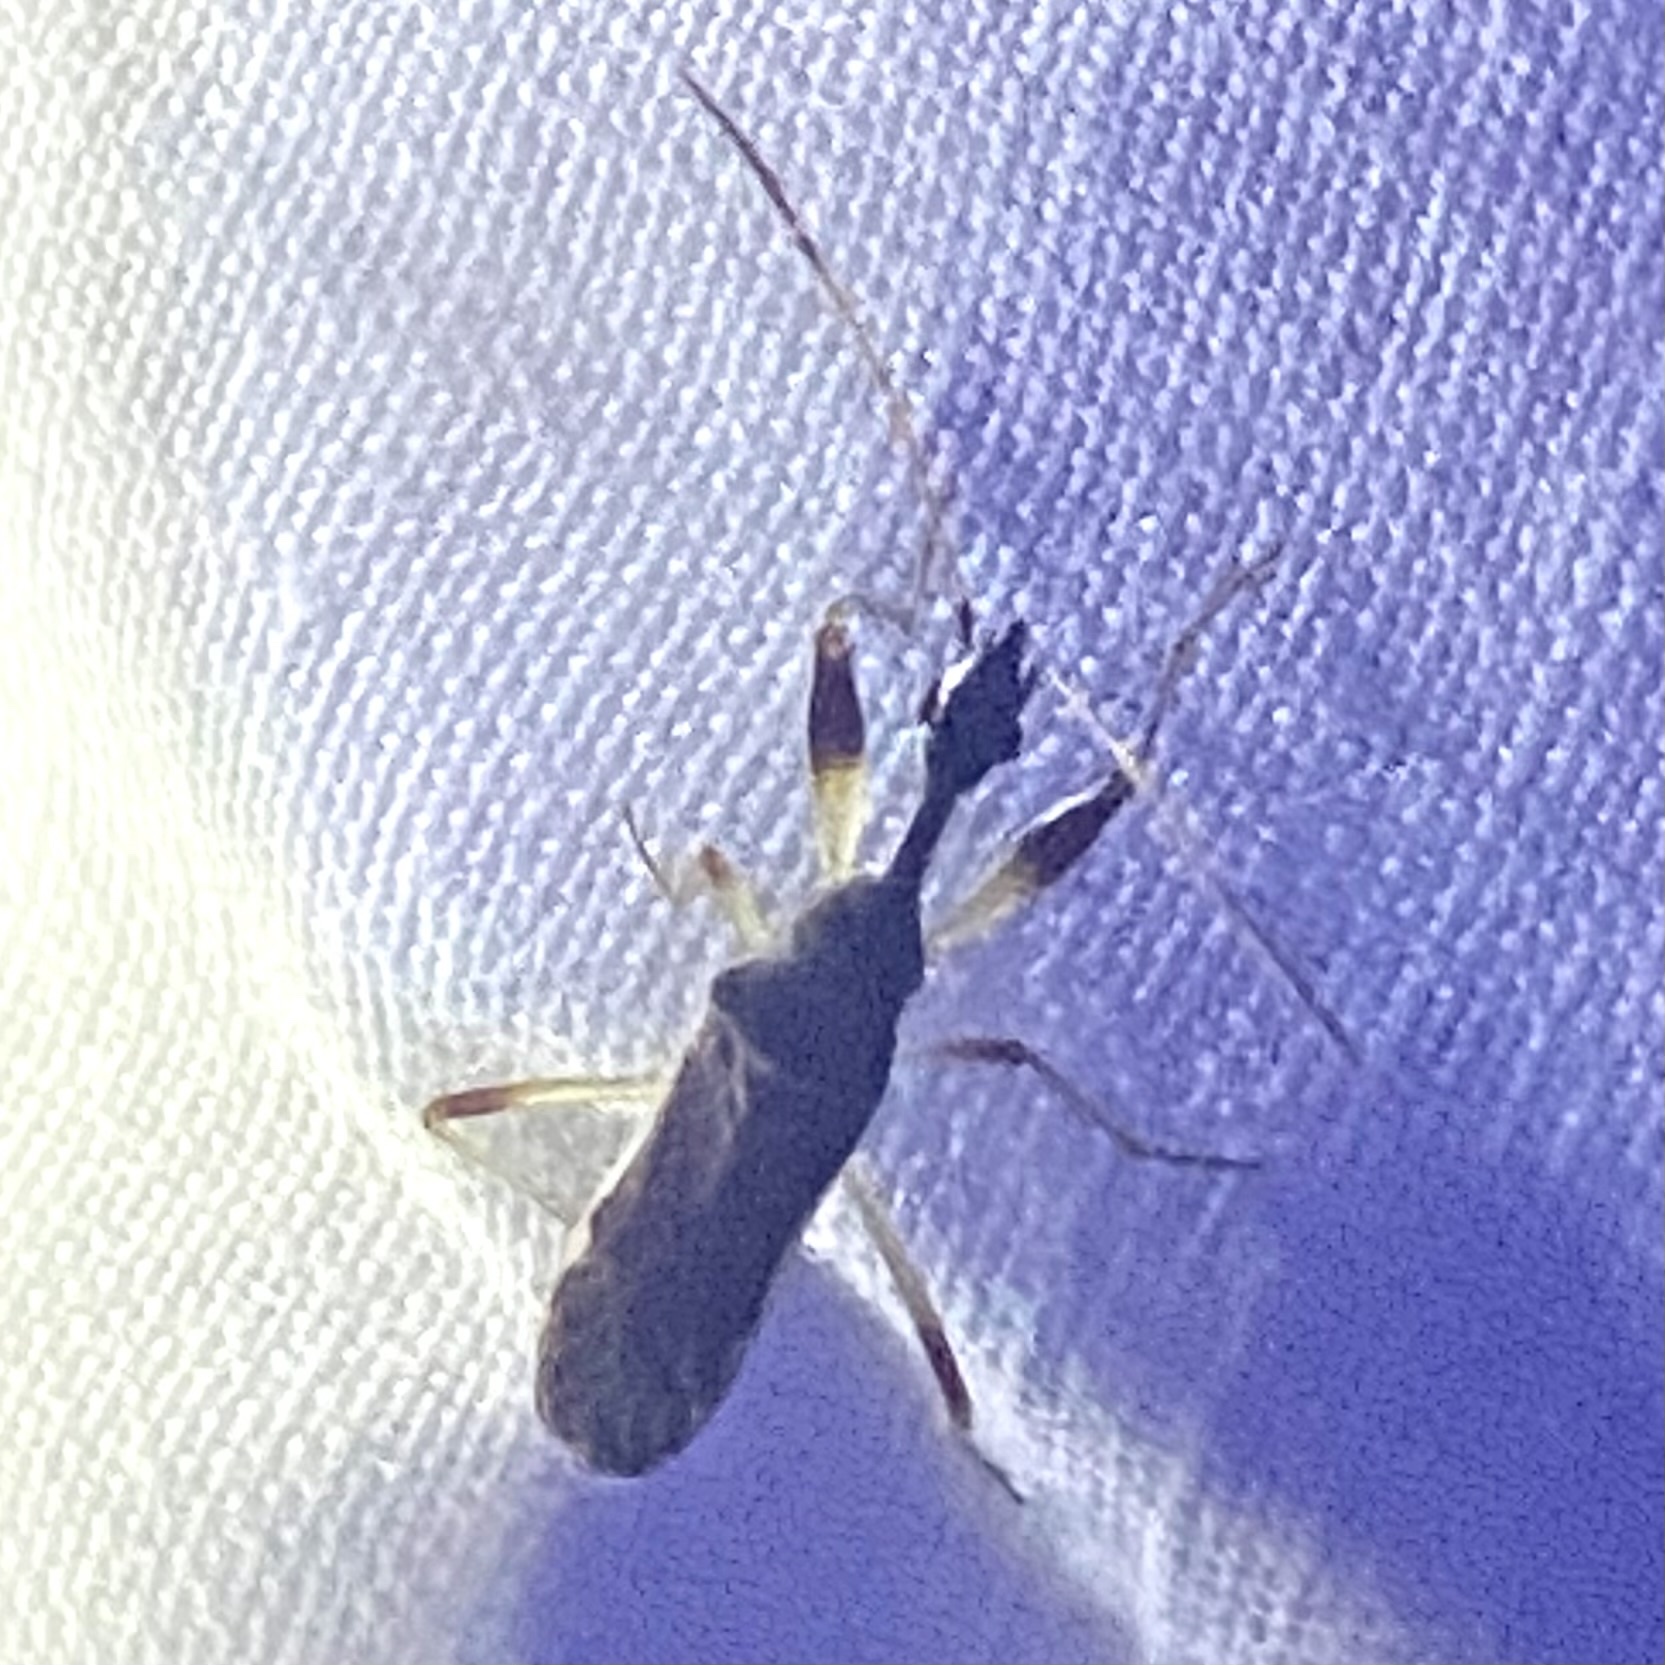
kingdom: Animalia
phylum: Arthropoda
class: Insecta
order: Hemiptera
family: Rhyparochromidae
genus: Myodocha
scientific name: Myodocha serripes
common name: Long-necked seed bug
